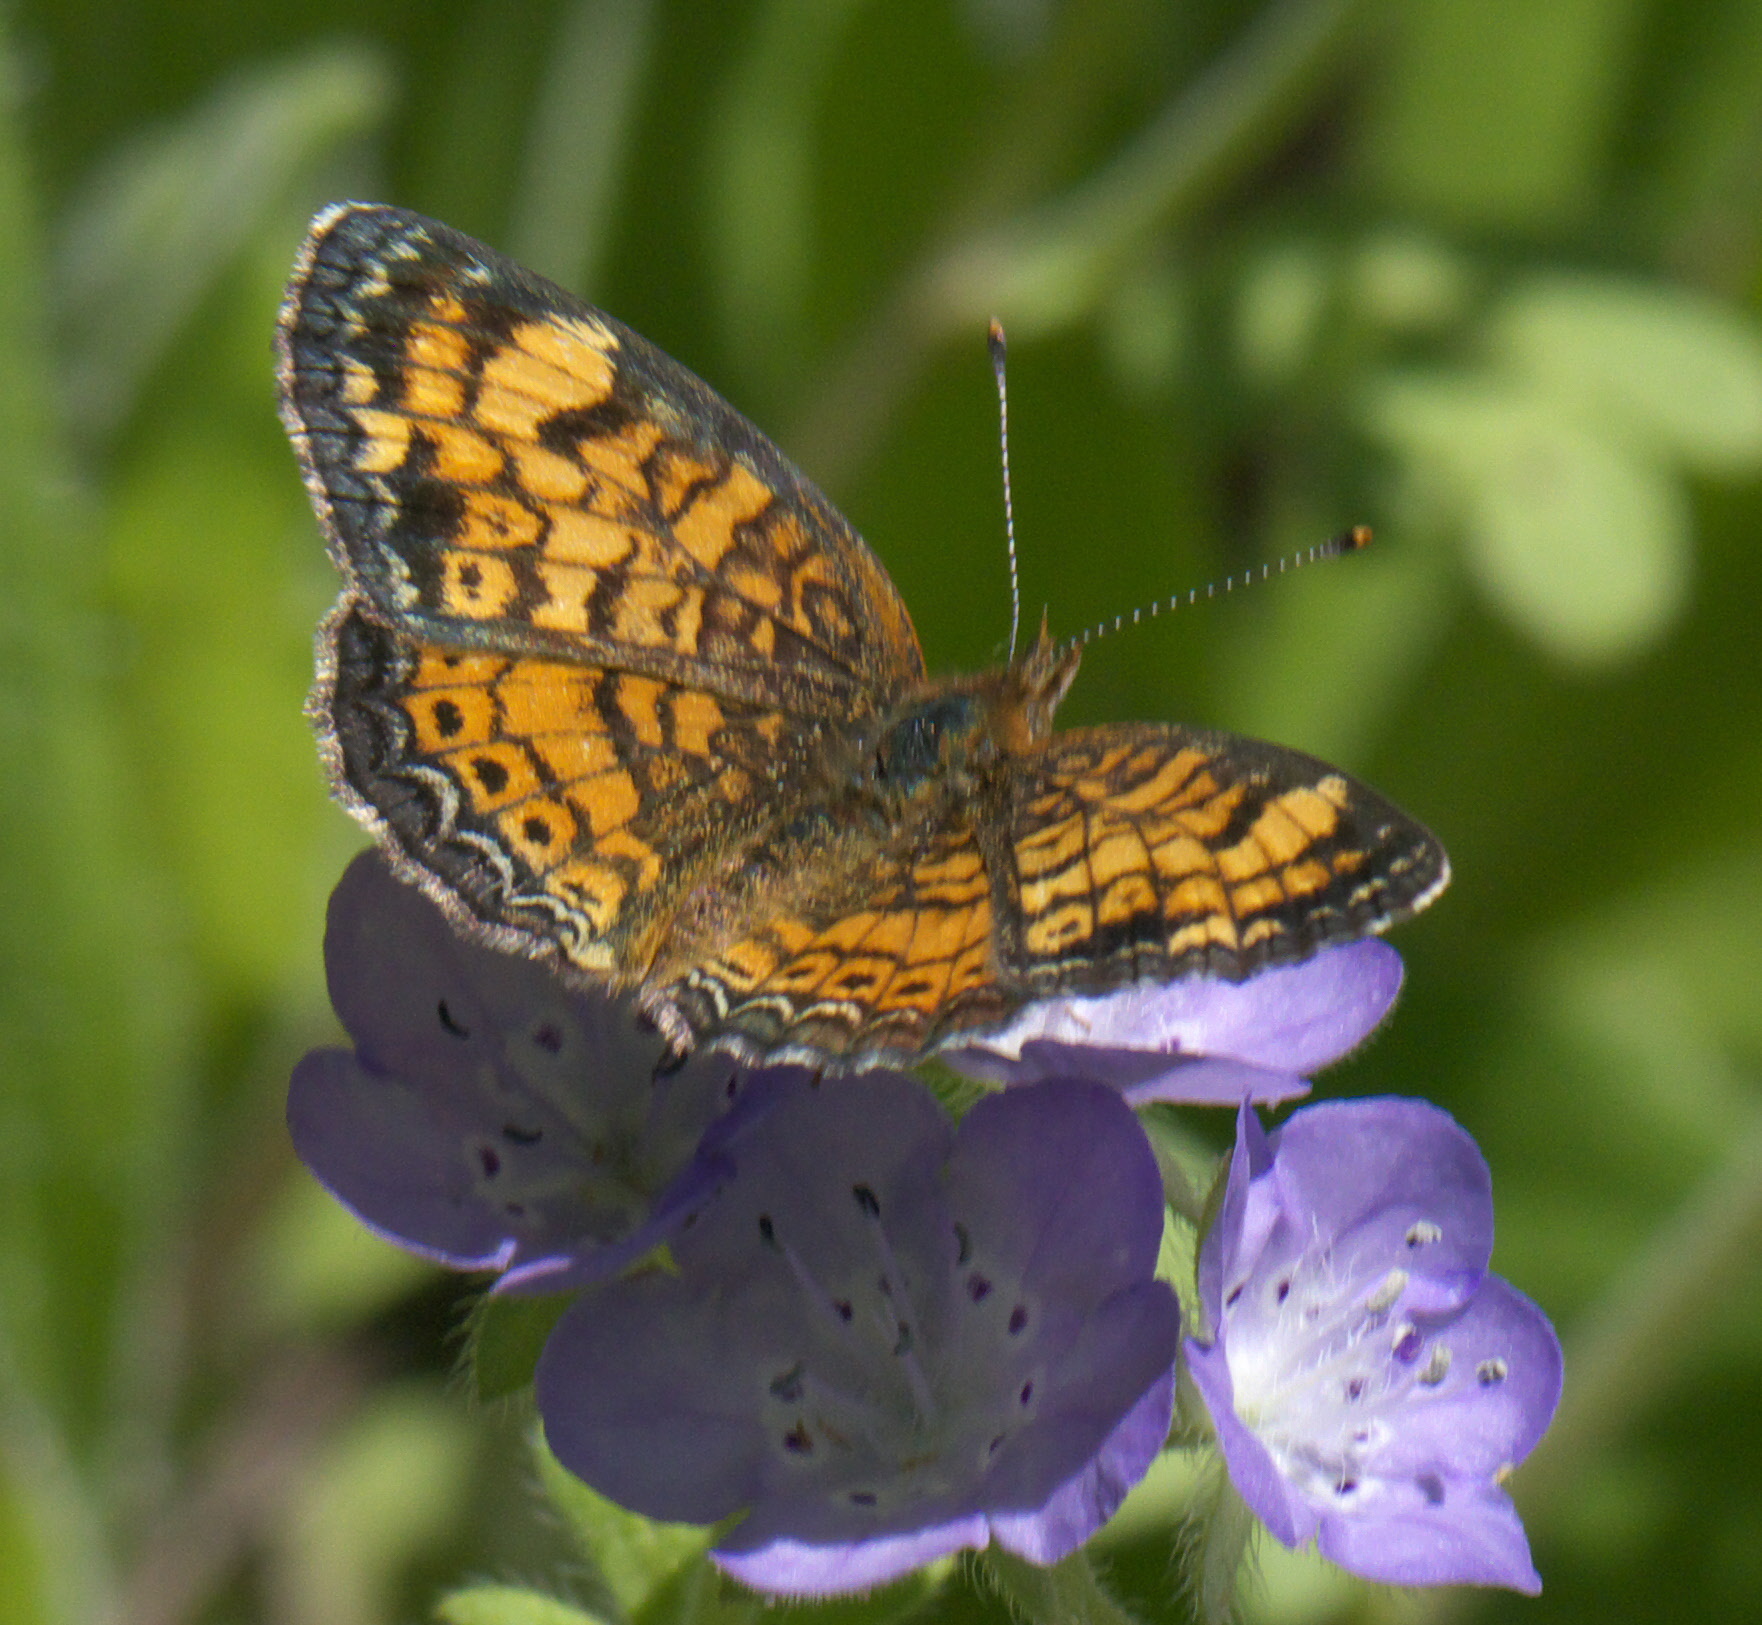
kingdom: Animalia
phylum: Arthropoda
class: Insecta
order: Lepidoptera
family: Nymphalidae
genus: Phyciodes
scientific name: Phyciodes tharos
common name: Pearl crescent
